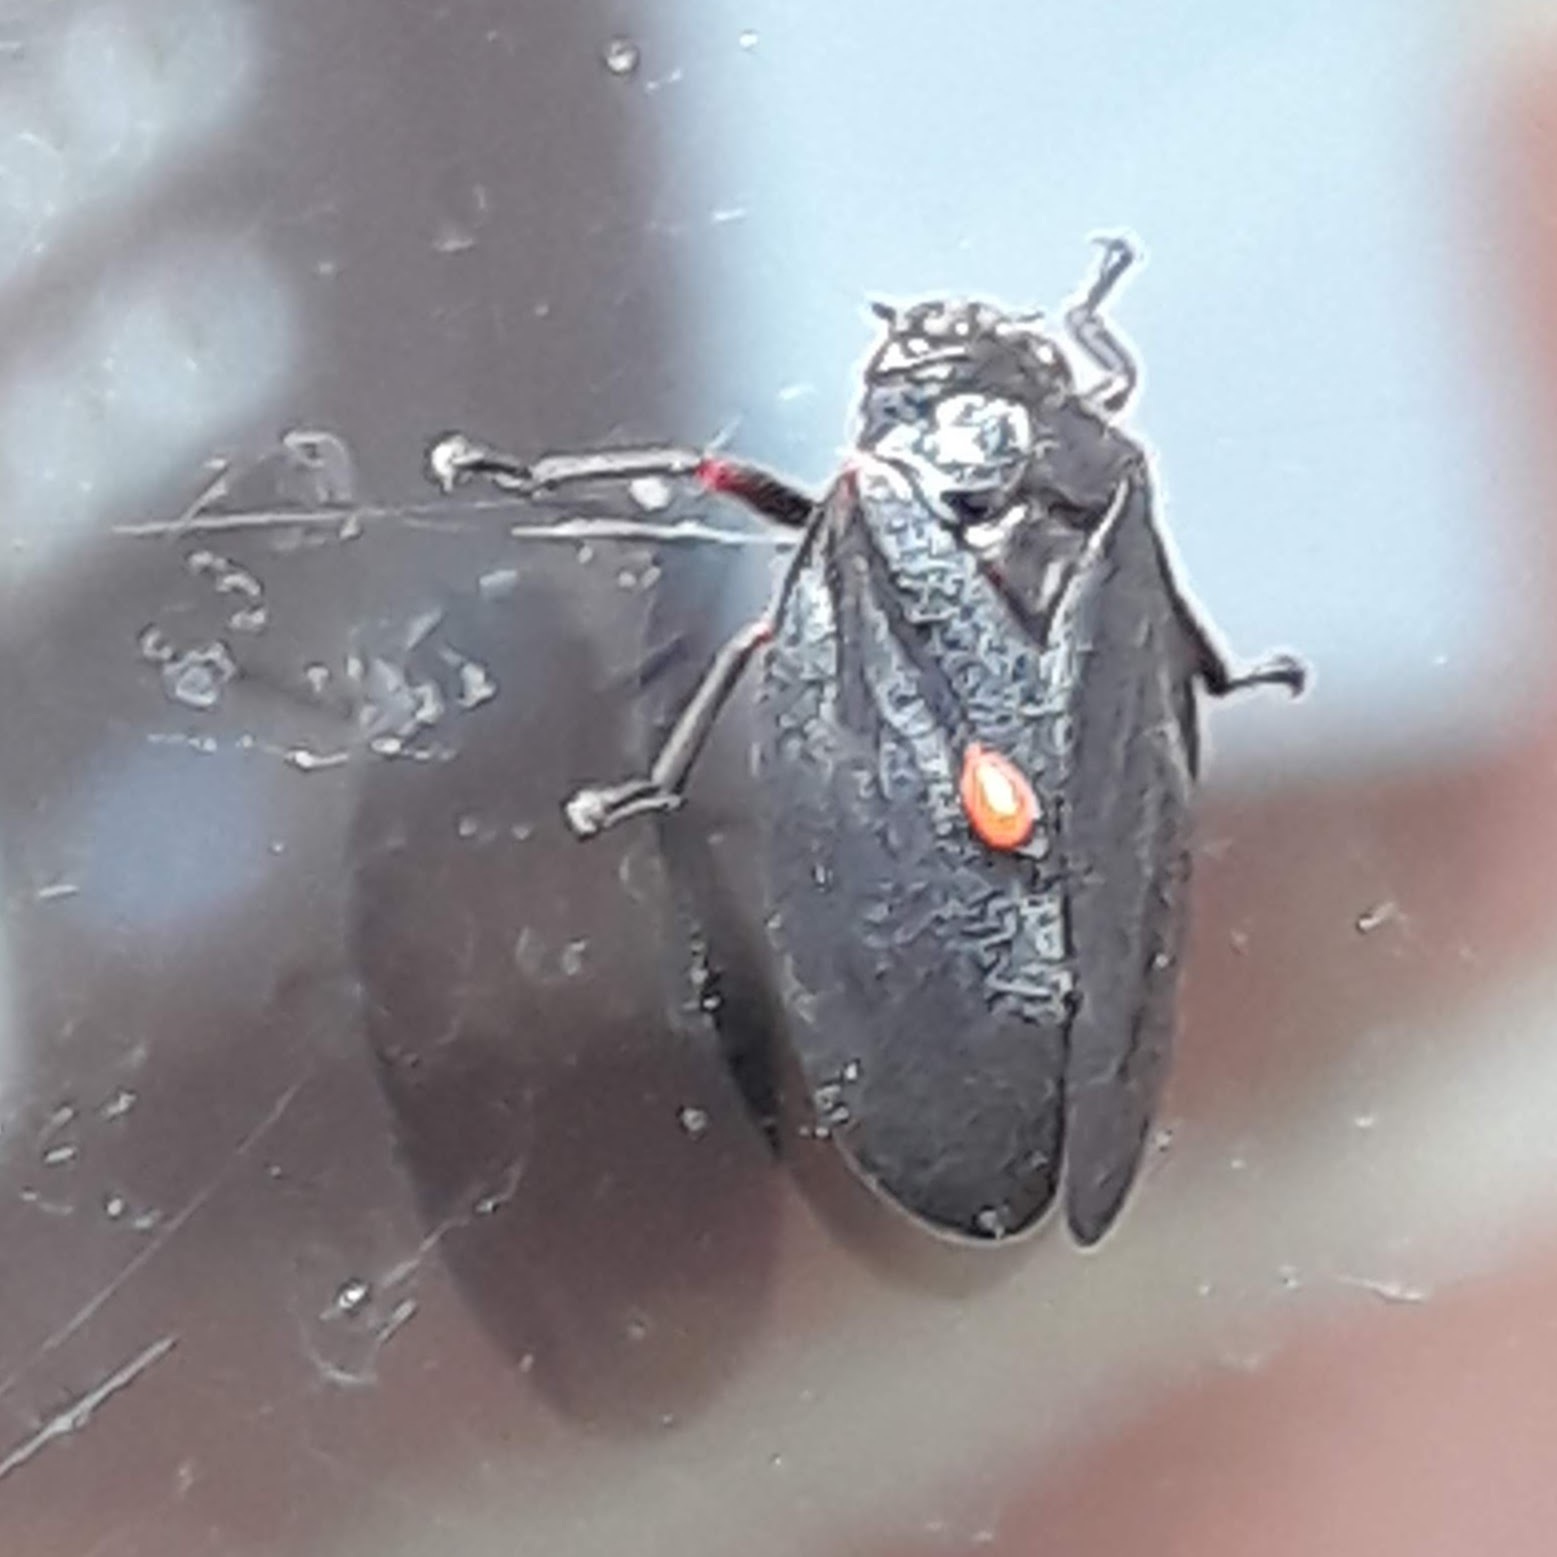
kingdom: Animalia
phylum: Arthropoda
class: Insecta
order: Hemiptera
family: Cercopidae
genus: Prosapia
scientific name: Prosapia ignipectus
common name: Black spittlebug
